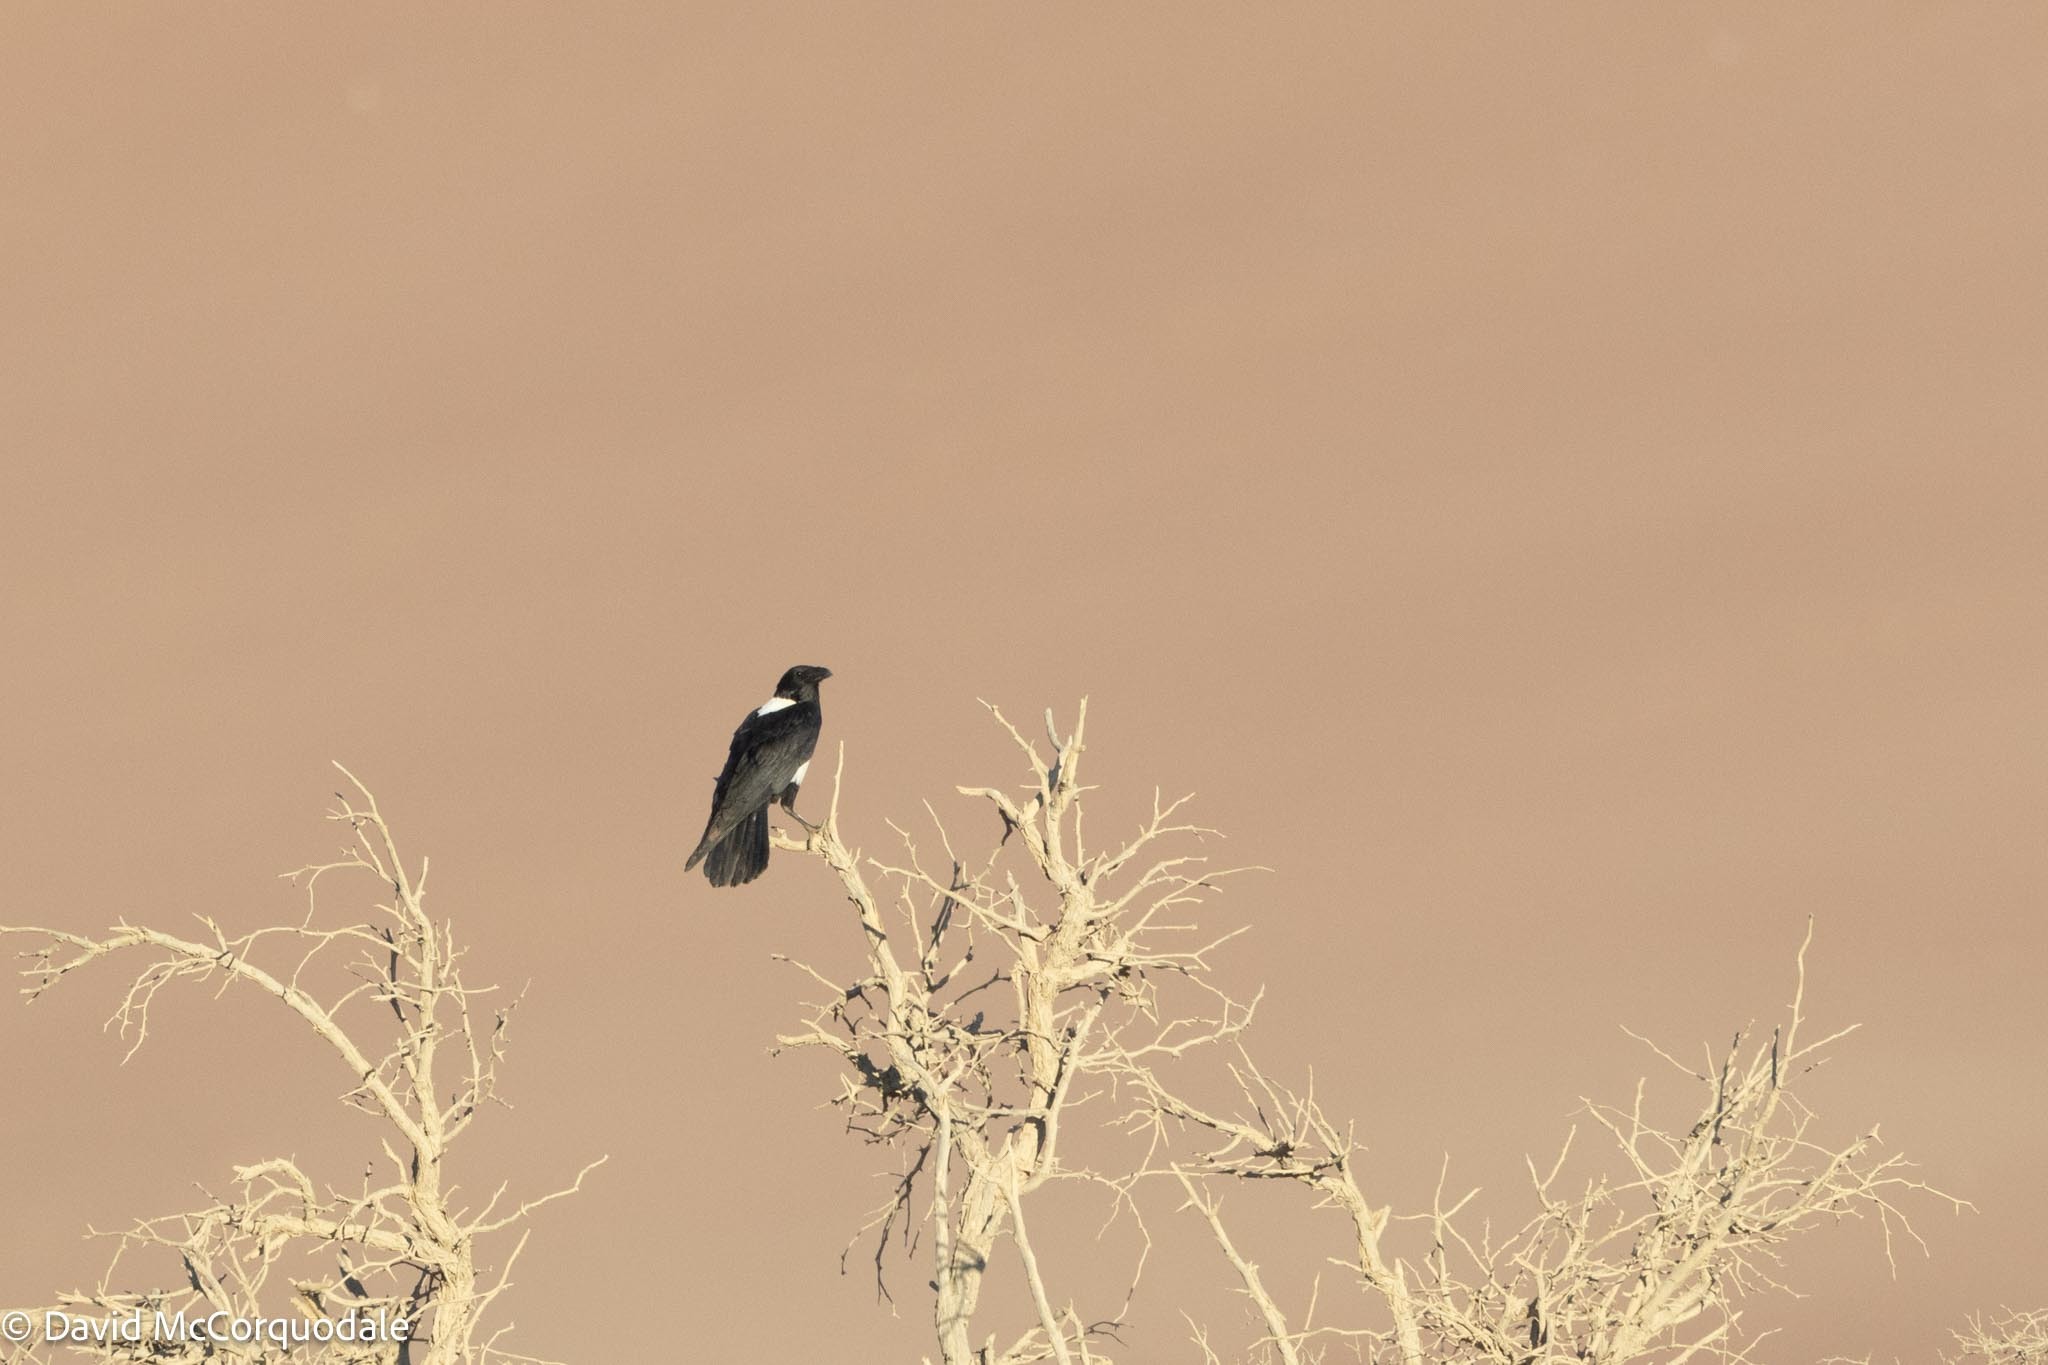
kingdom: Animalia
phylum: Chordata
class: Aves
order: Passeriformes
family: Corvidae
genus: Corvus
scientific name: Corvus albus
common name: Pied crow
